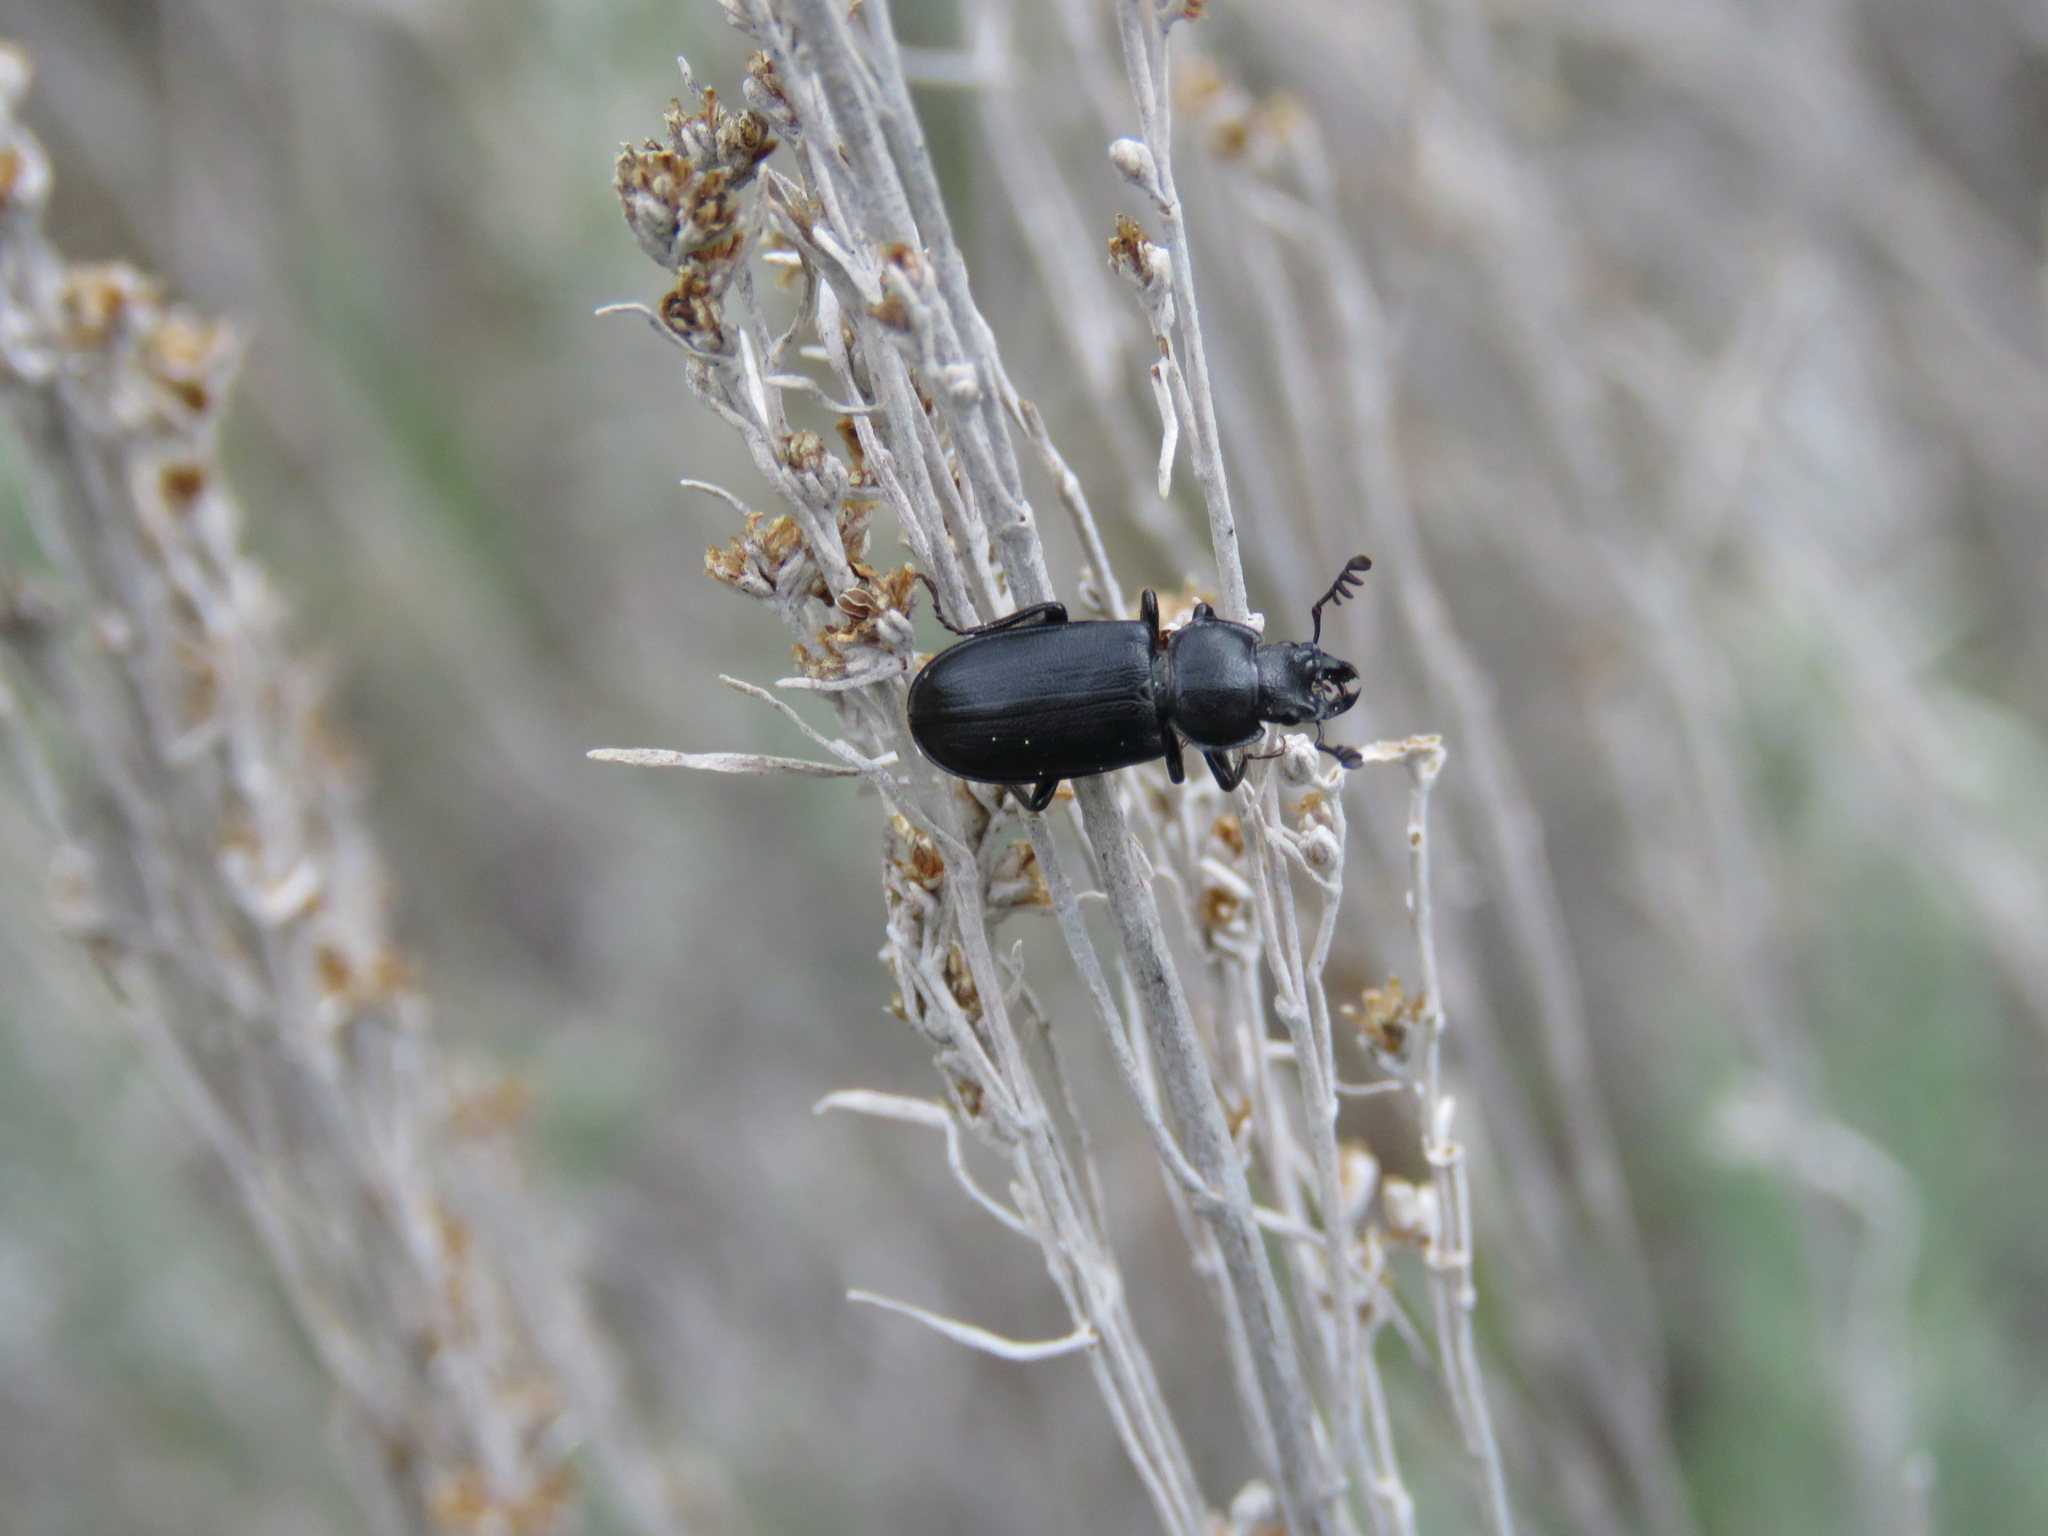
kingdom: Animalia
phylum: Arthropoda
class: Insecta
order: Coleoptera
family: Lucanidae
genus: Platycerus
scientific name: Platycerus marginalis
